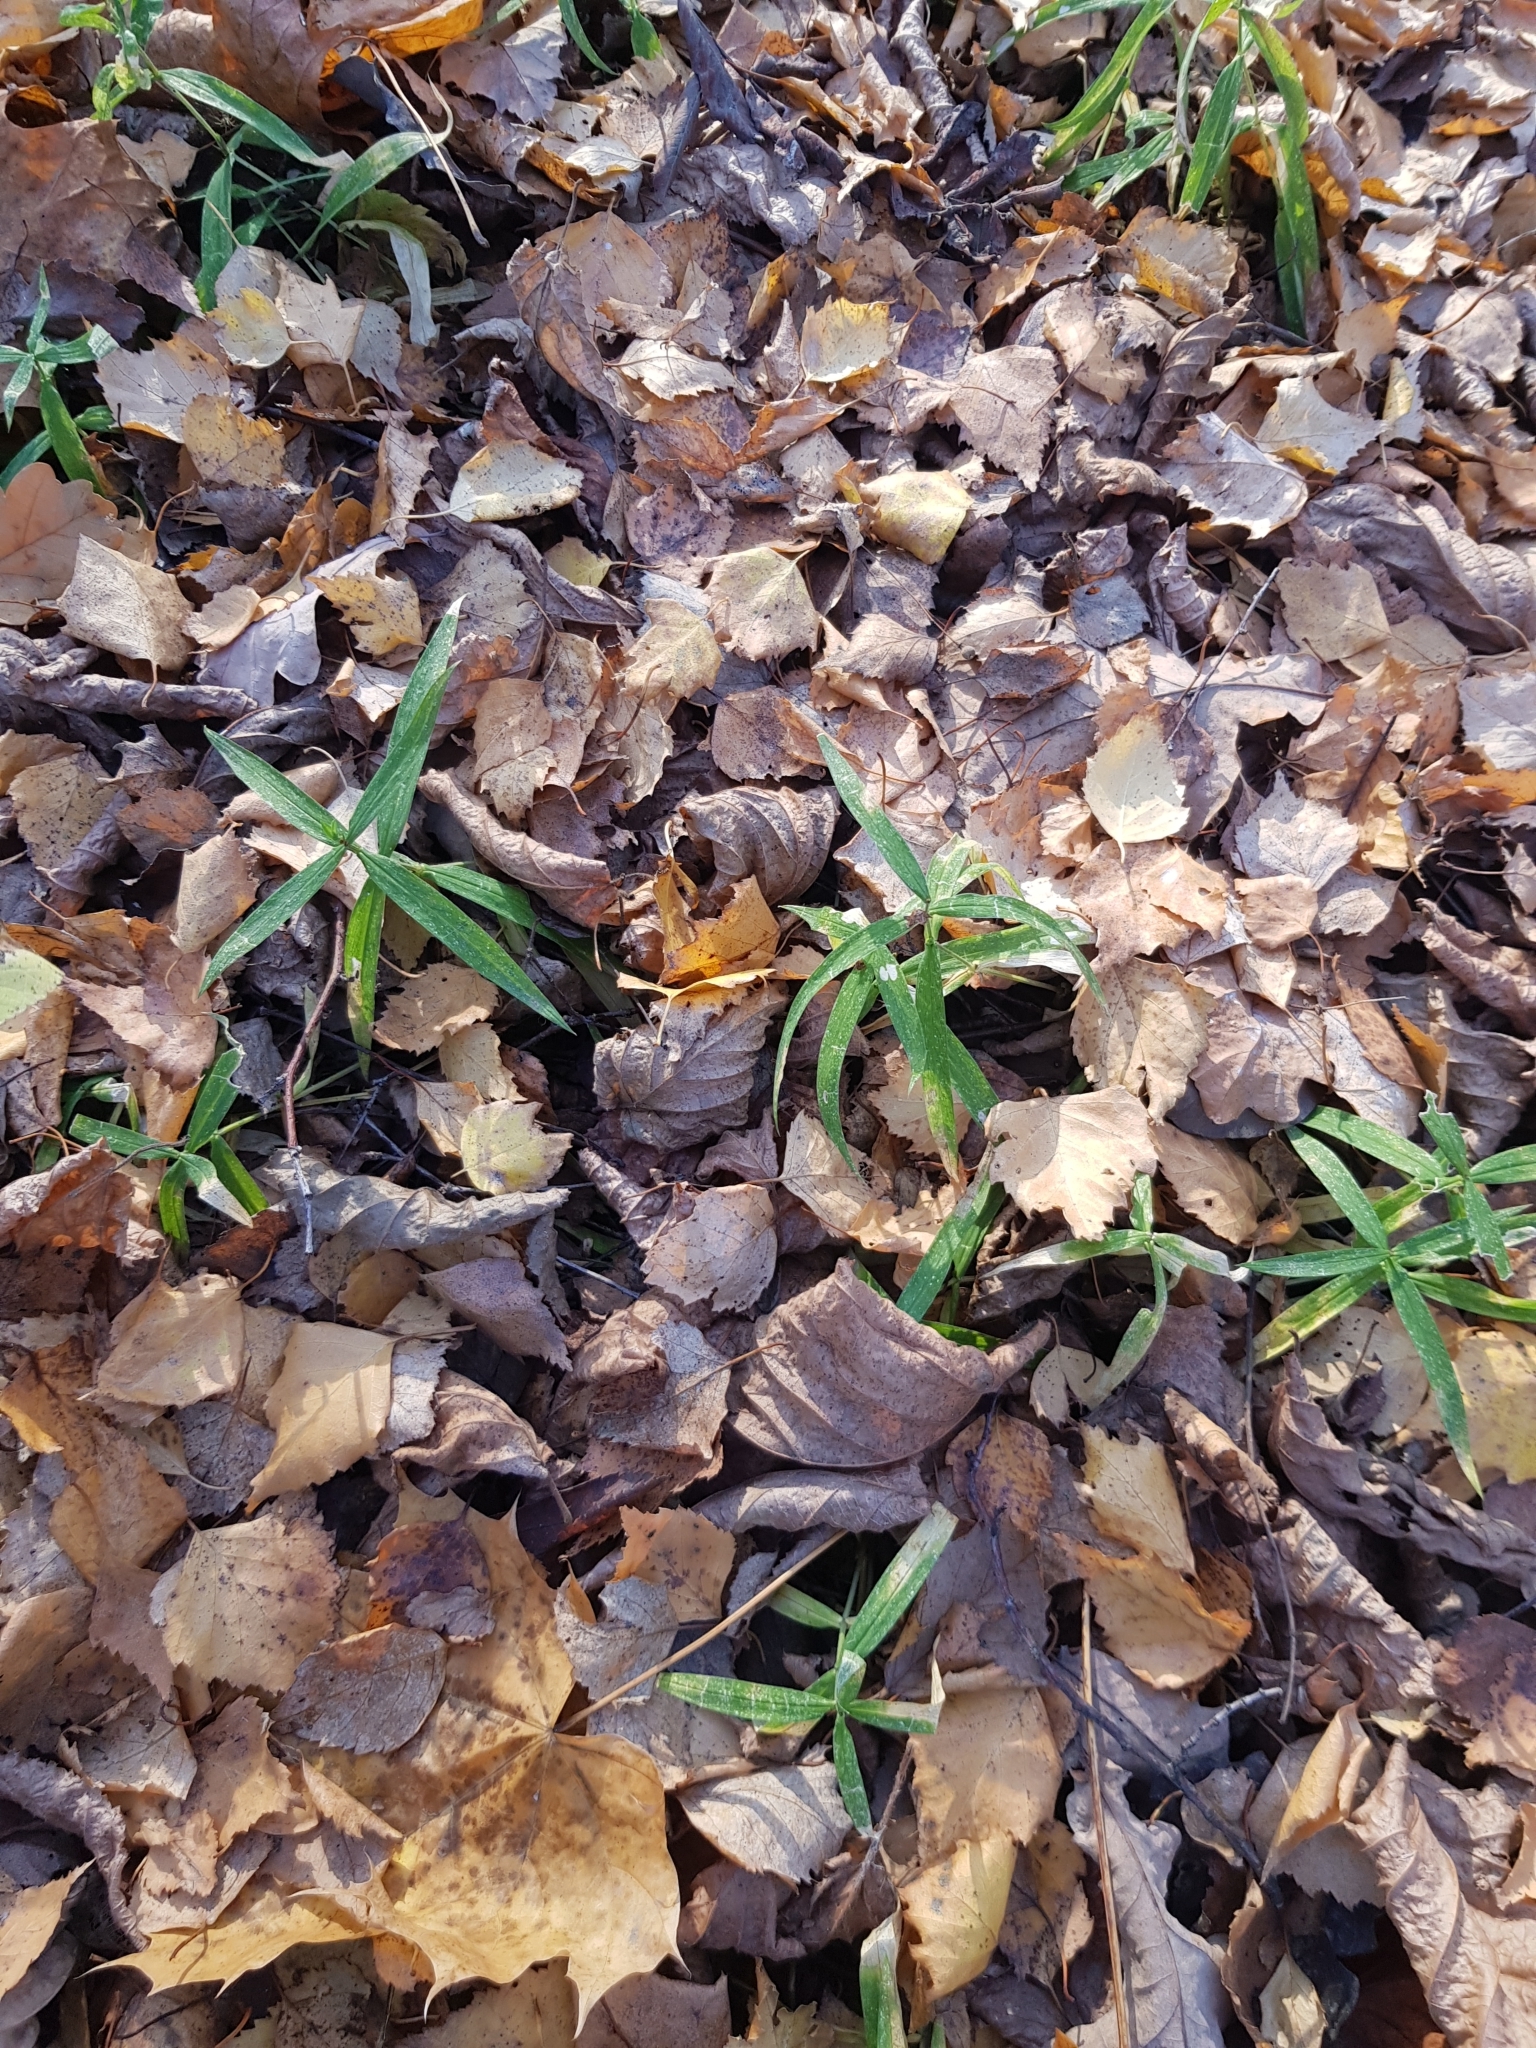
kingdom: Plantae
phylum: Tracheophyta
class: Magnoliopsida
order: Caryophyllales
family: Caryophyllaceae
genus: Rabelera
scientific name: Rabelera holostea
